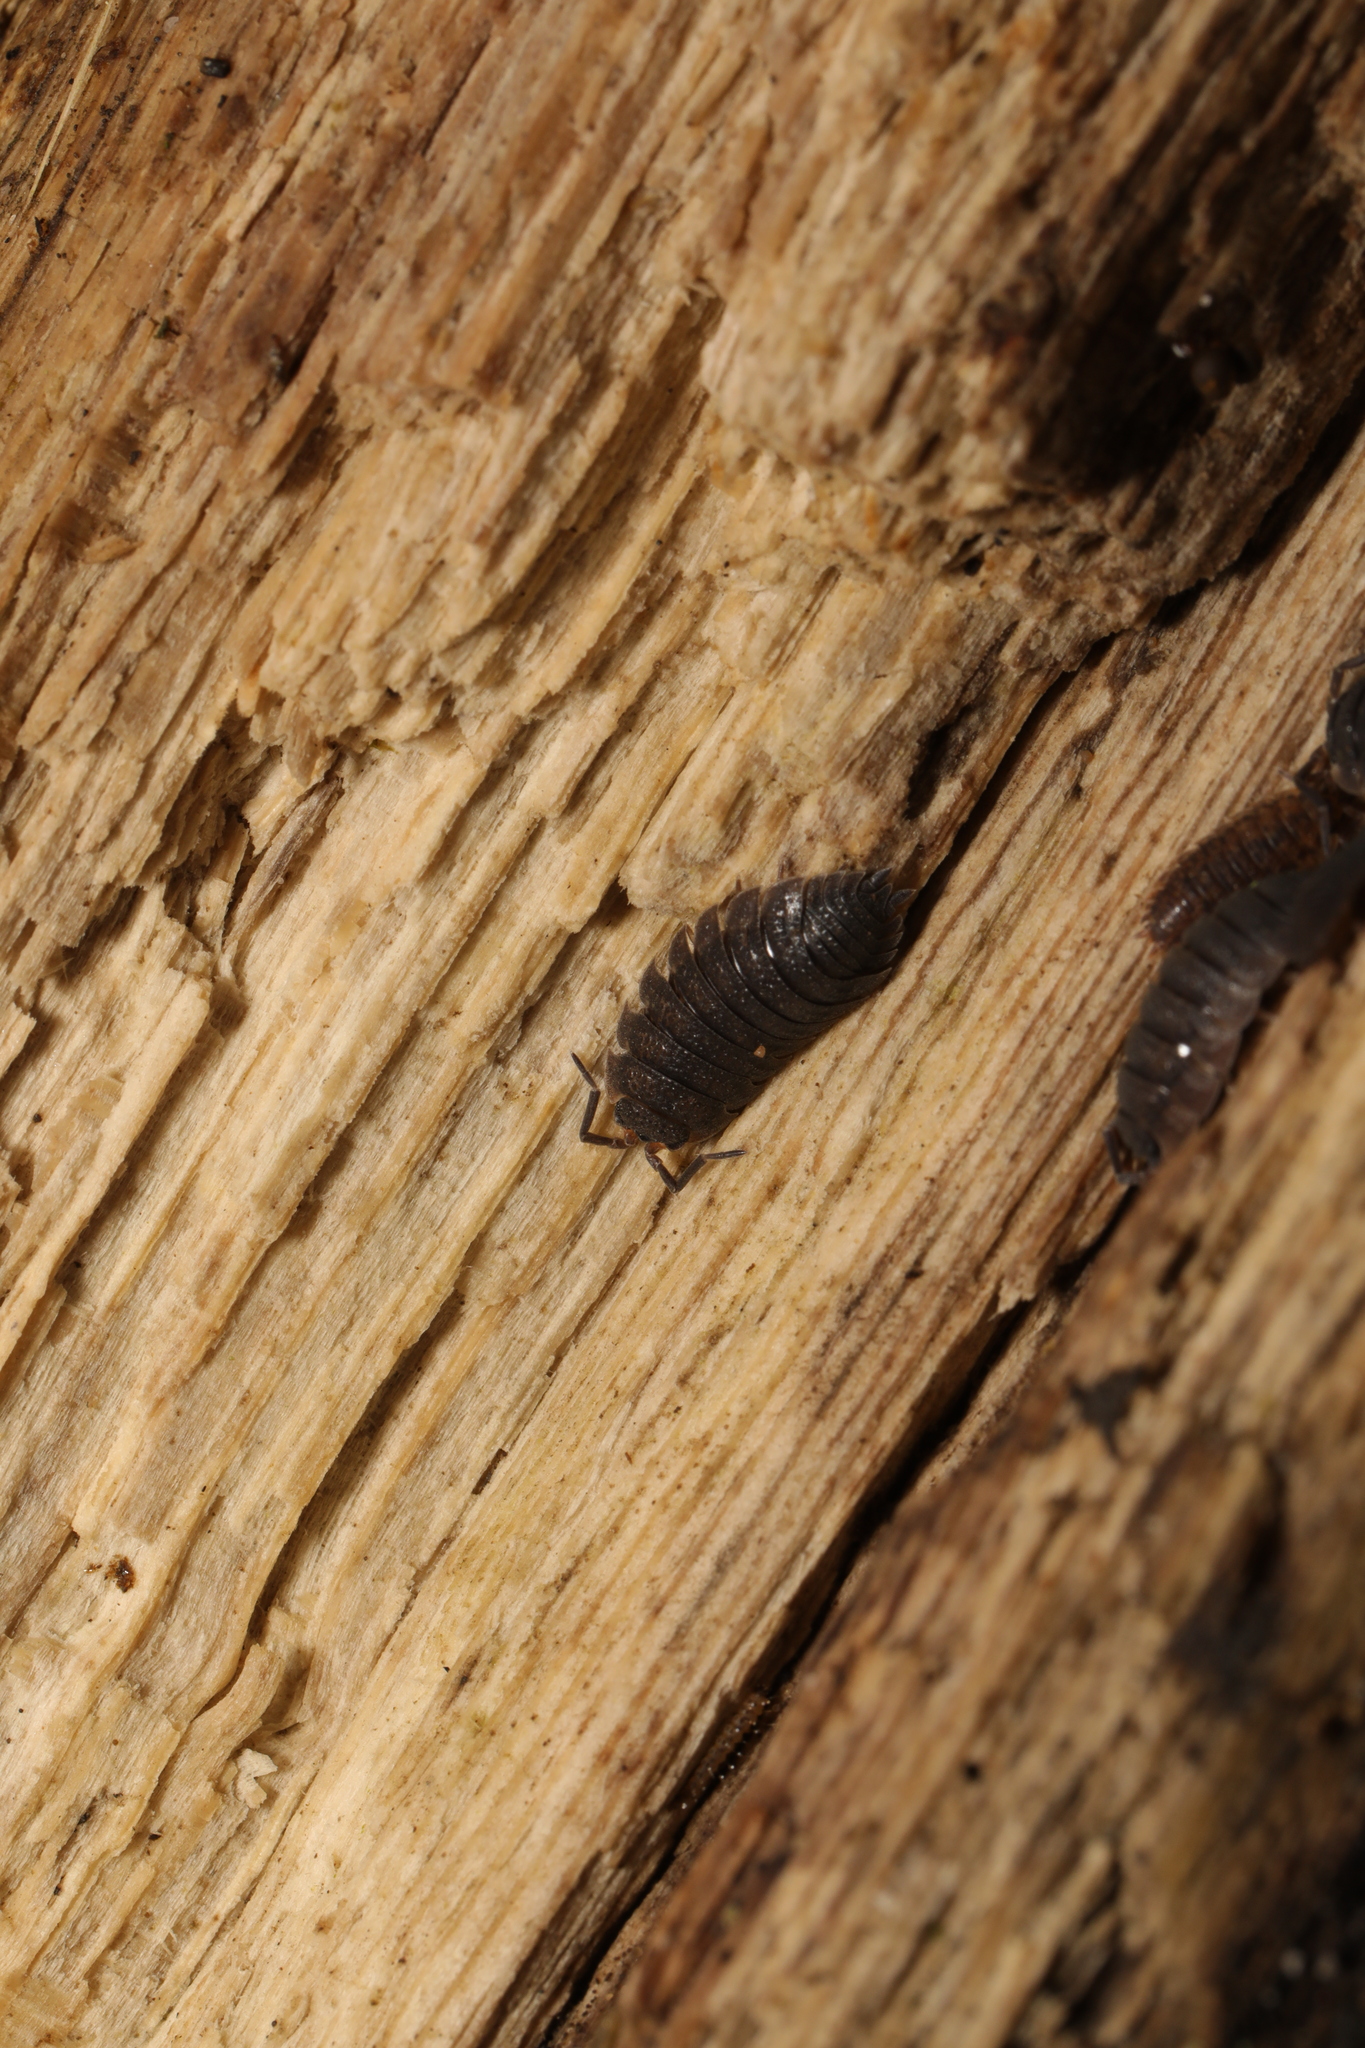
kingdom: Animalia
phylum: Arthropoda
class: Malacostraca
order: Isopoda
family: Porcellionidae
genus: Porcellio
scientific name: Porcellio scaber
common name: Common rough woodlouse
